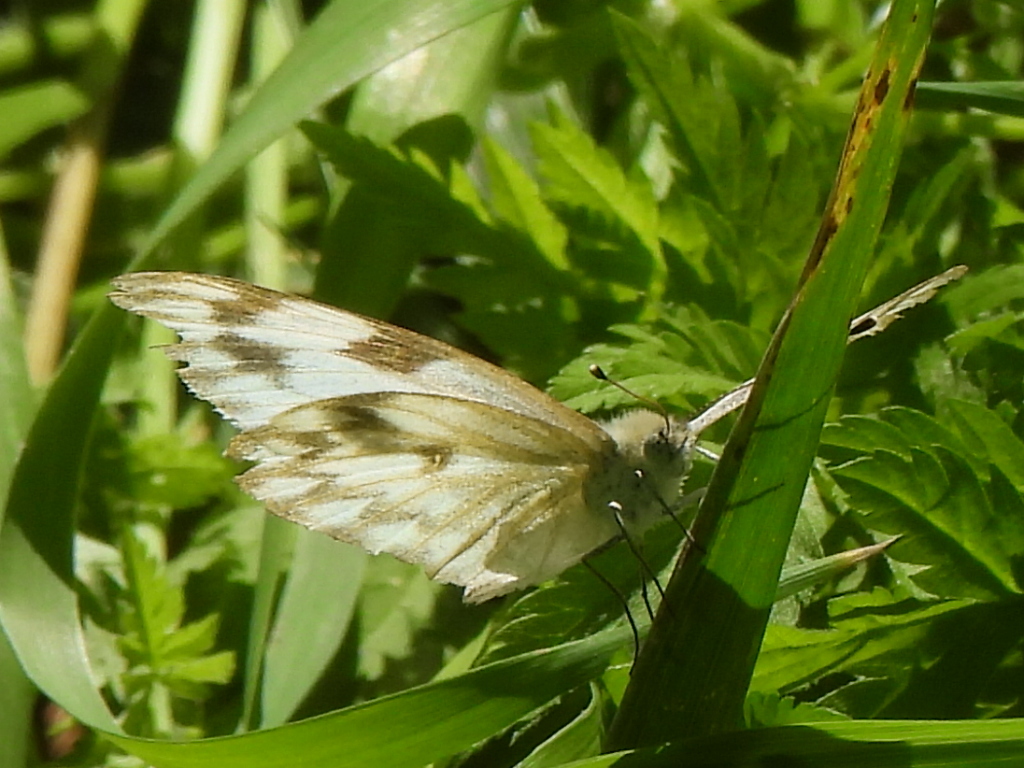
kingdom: Animalia
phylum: Arthropoda
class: Insecta
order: Lepidoptera
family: Pieridae
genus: Pontia
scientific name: Pontia protodice
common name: Checkered white
